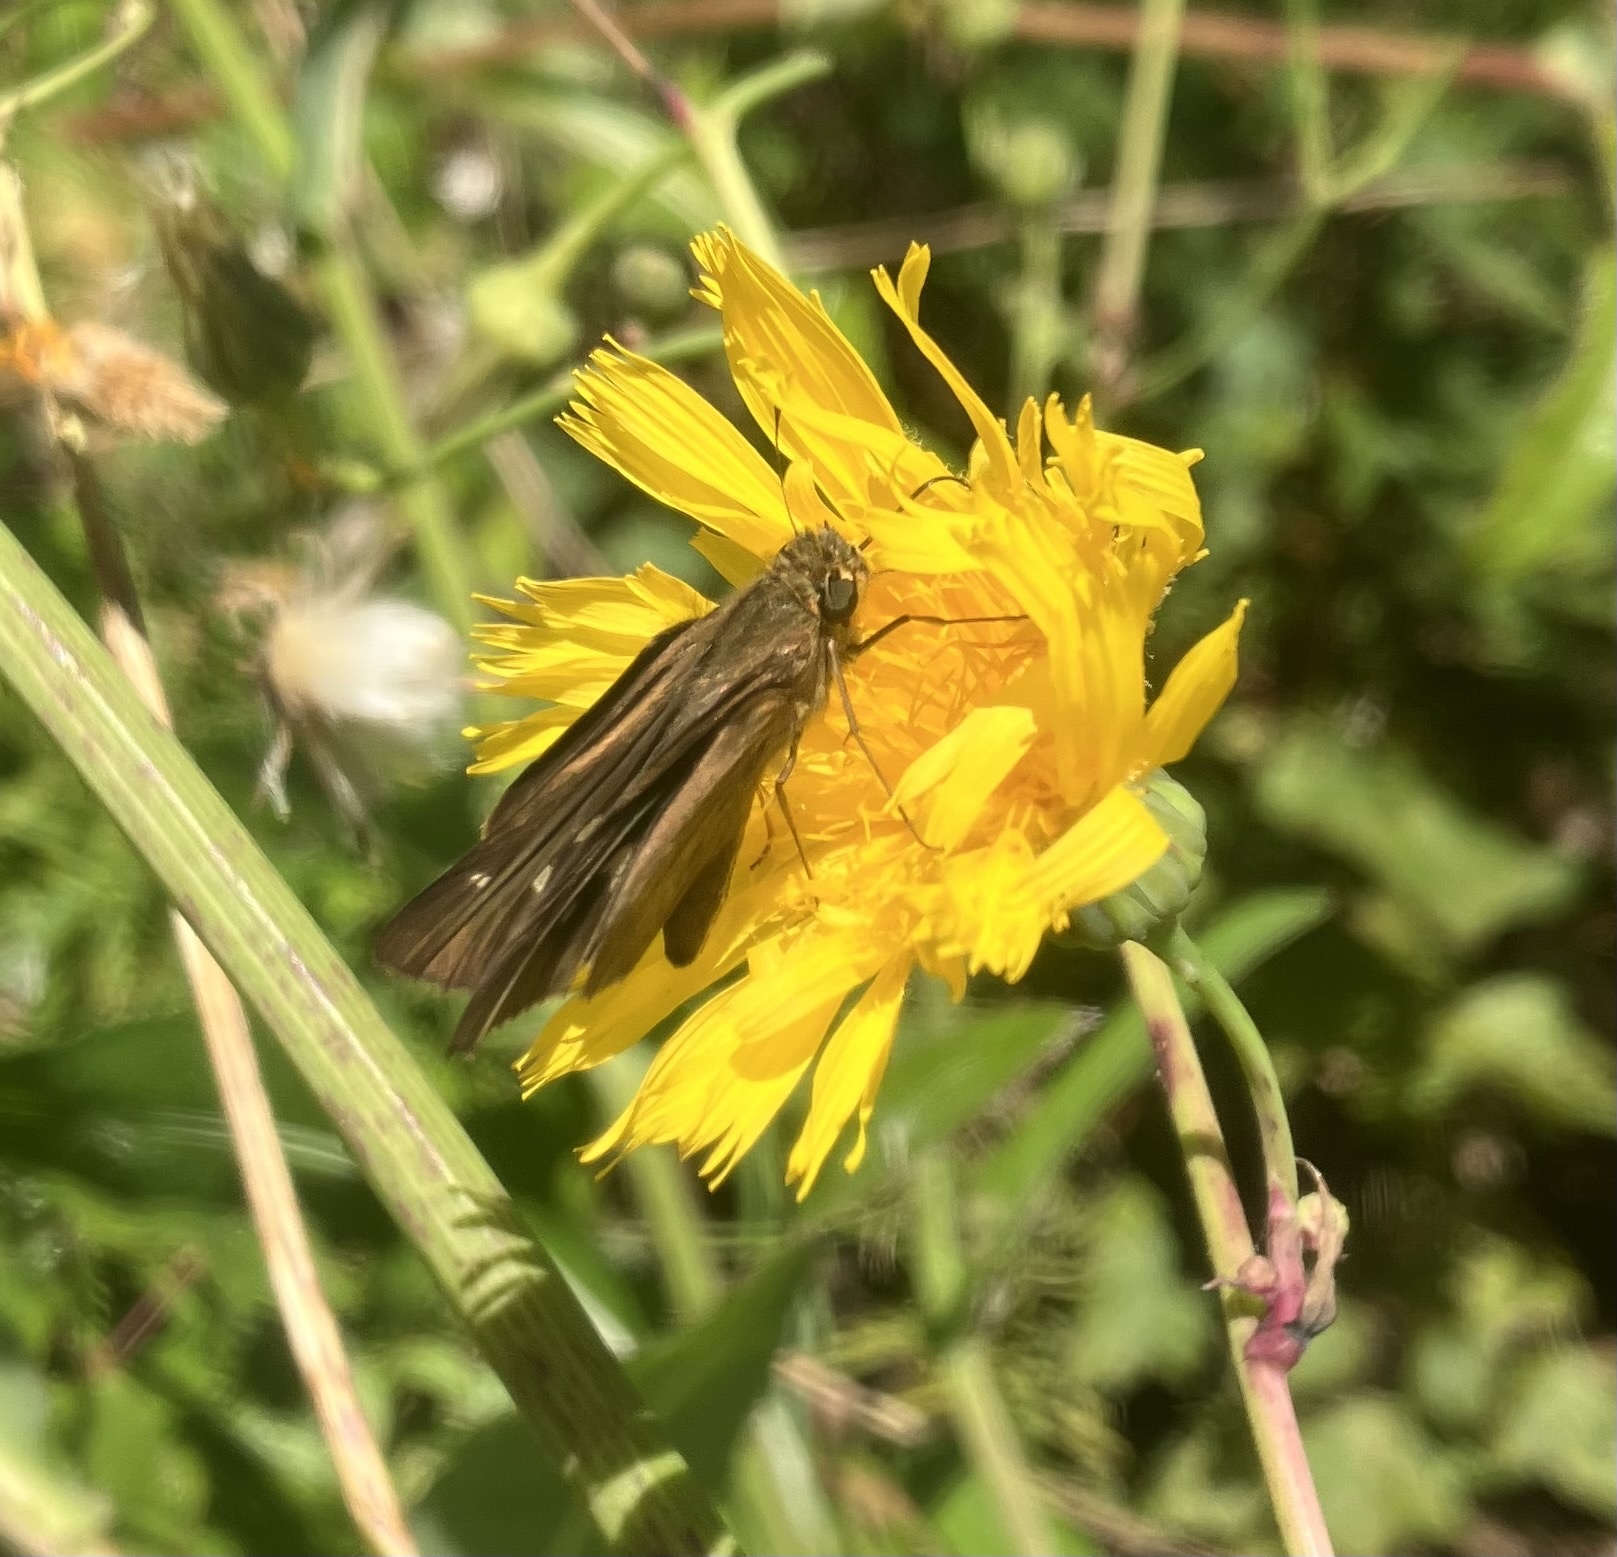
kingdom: Animalia
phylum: Arthropoda
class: Insecta
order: Lepidoptera
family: Hesperiidae
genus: Panoquina
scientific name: Panoquina ocola
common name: Ocola skipper
